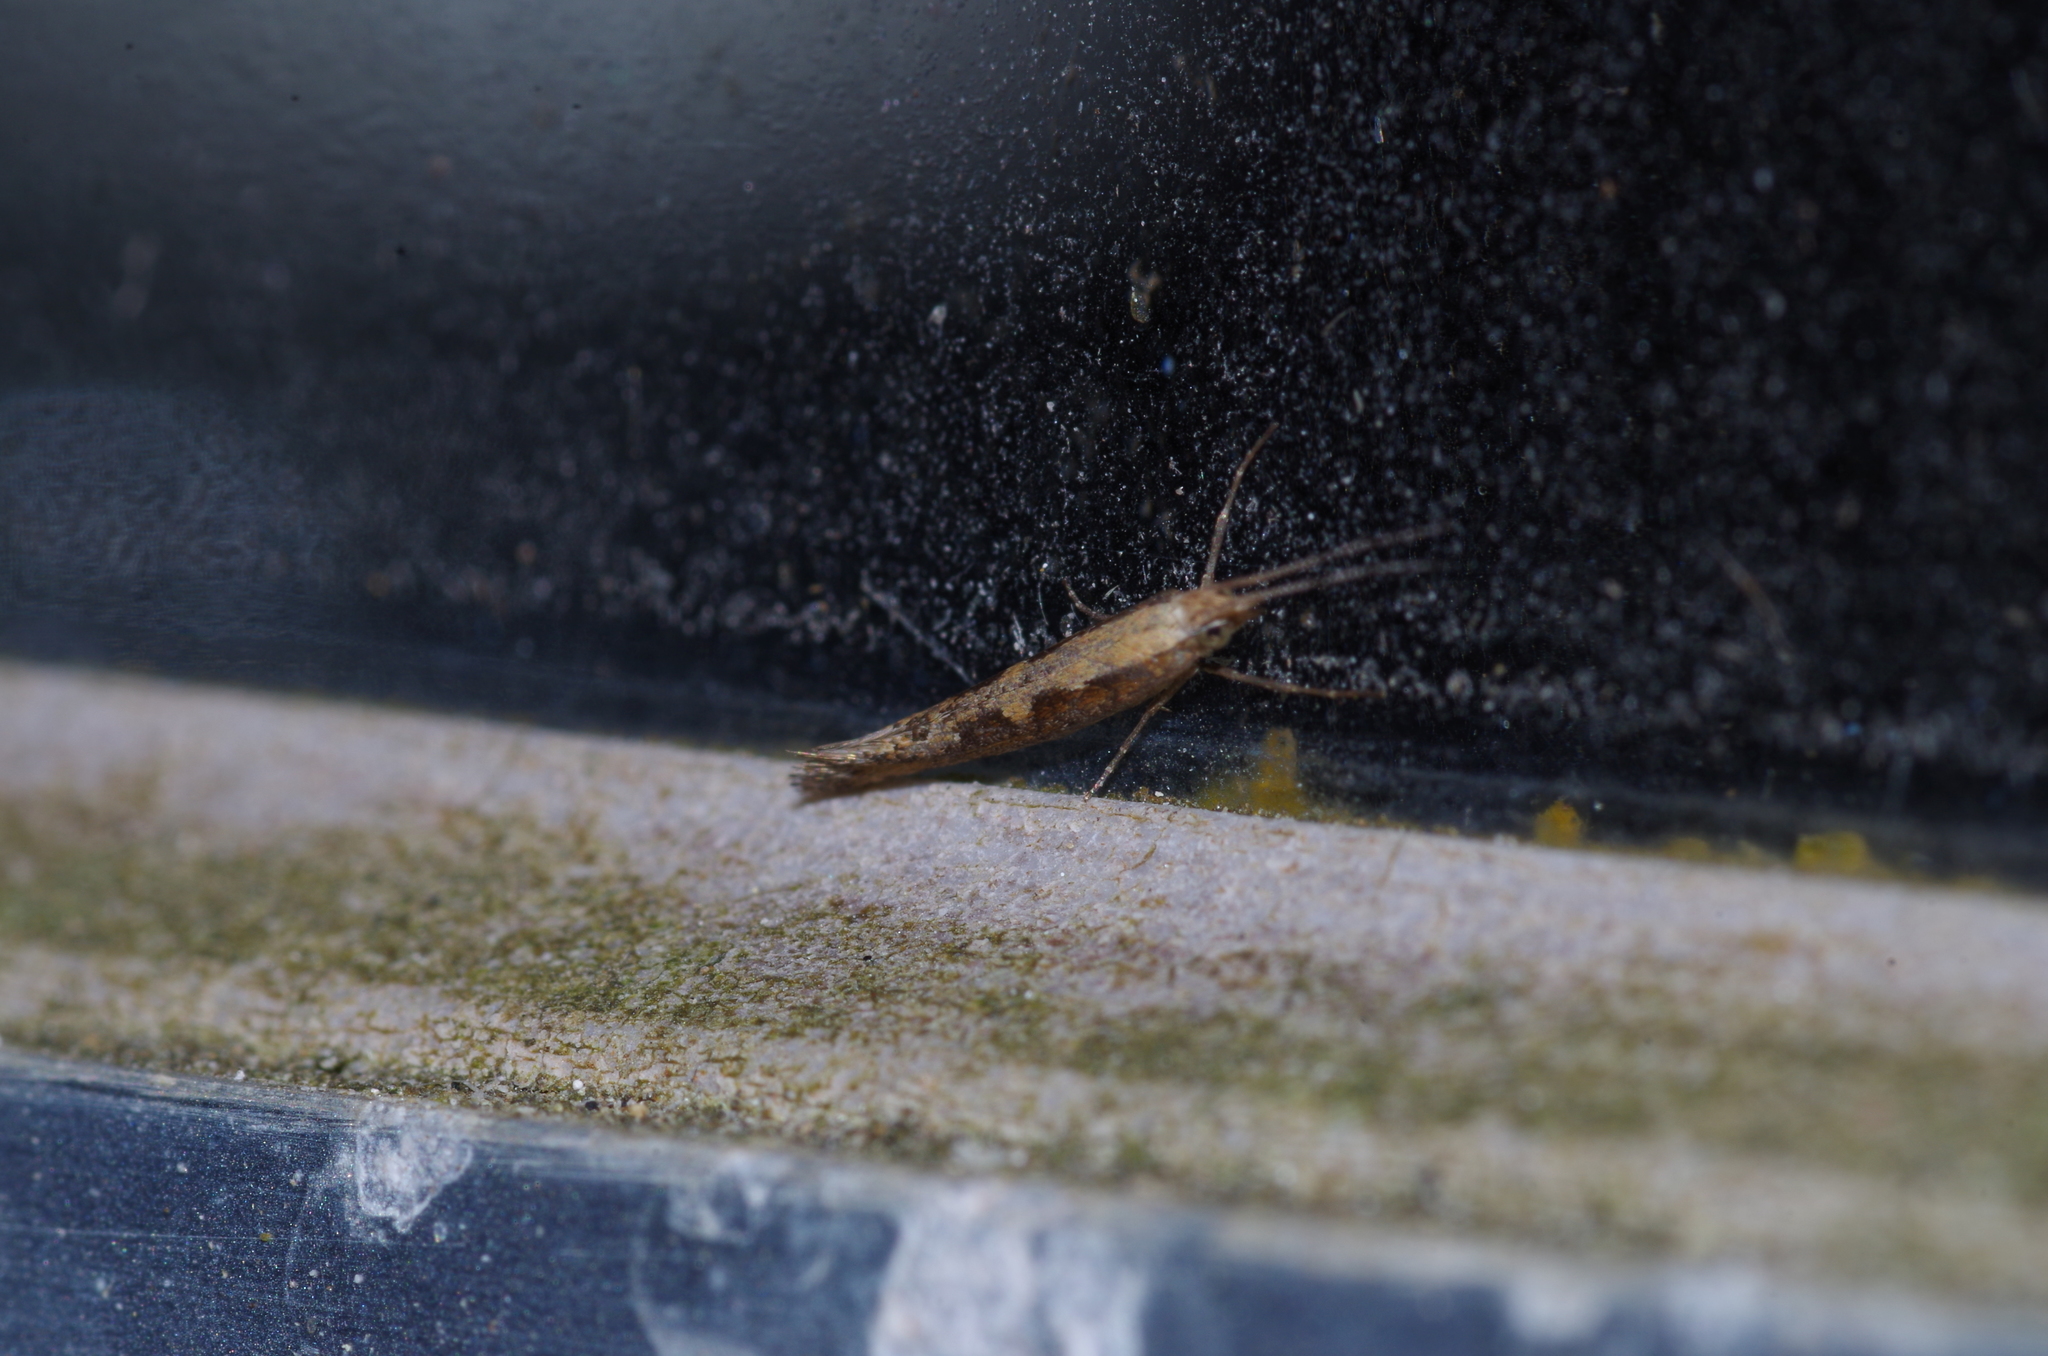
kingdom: Animalia
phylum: Arthropoda
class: Insecta
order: Lepidoptera
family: Plutellidae
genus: Plutella
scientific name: Plutella xylostella
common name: Diamond-back moth
